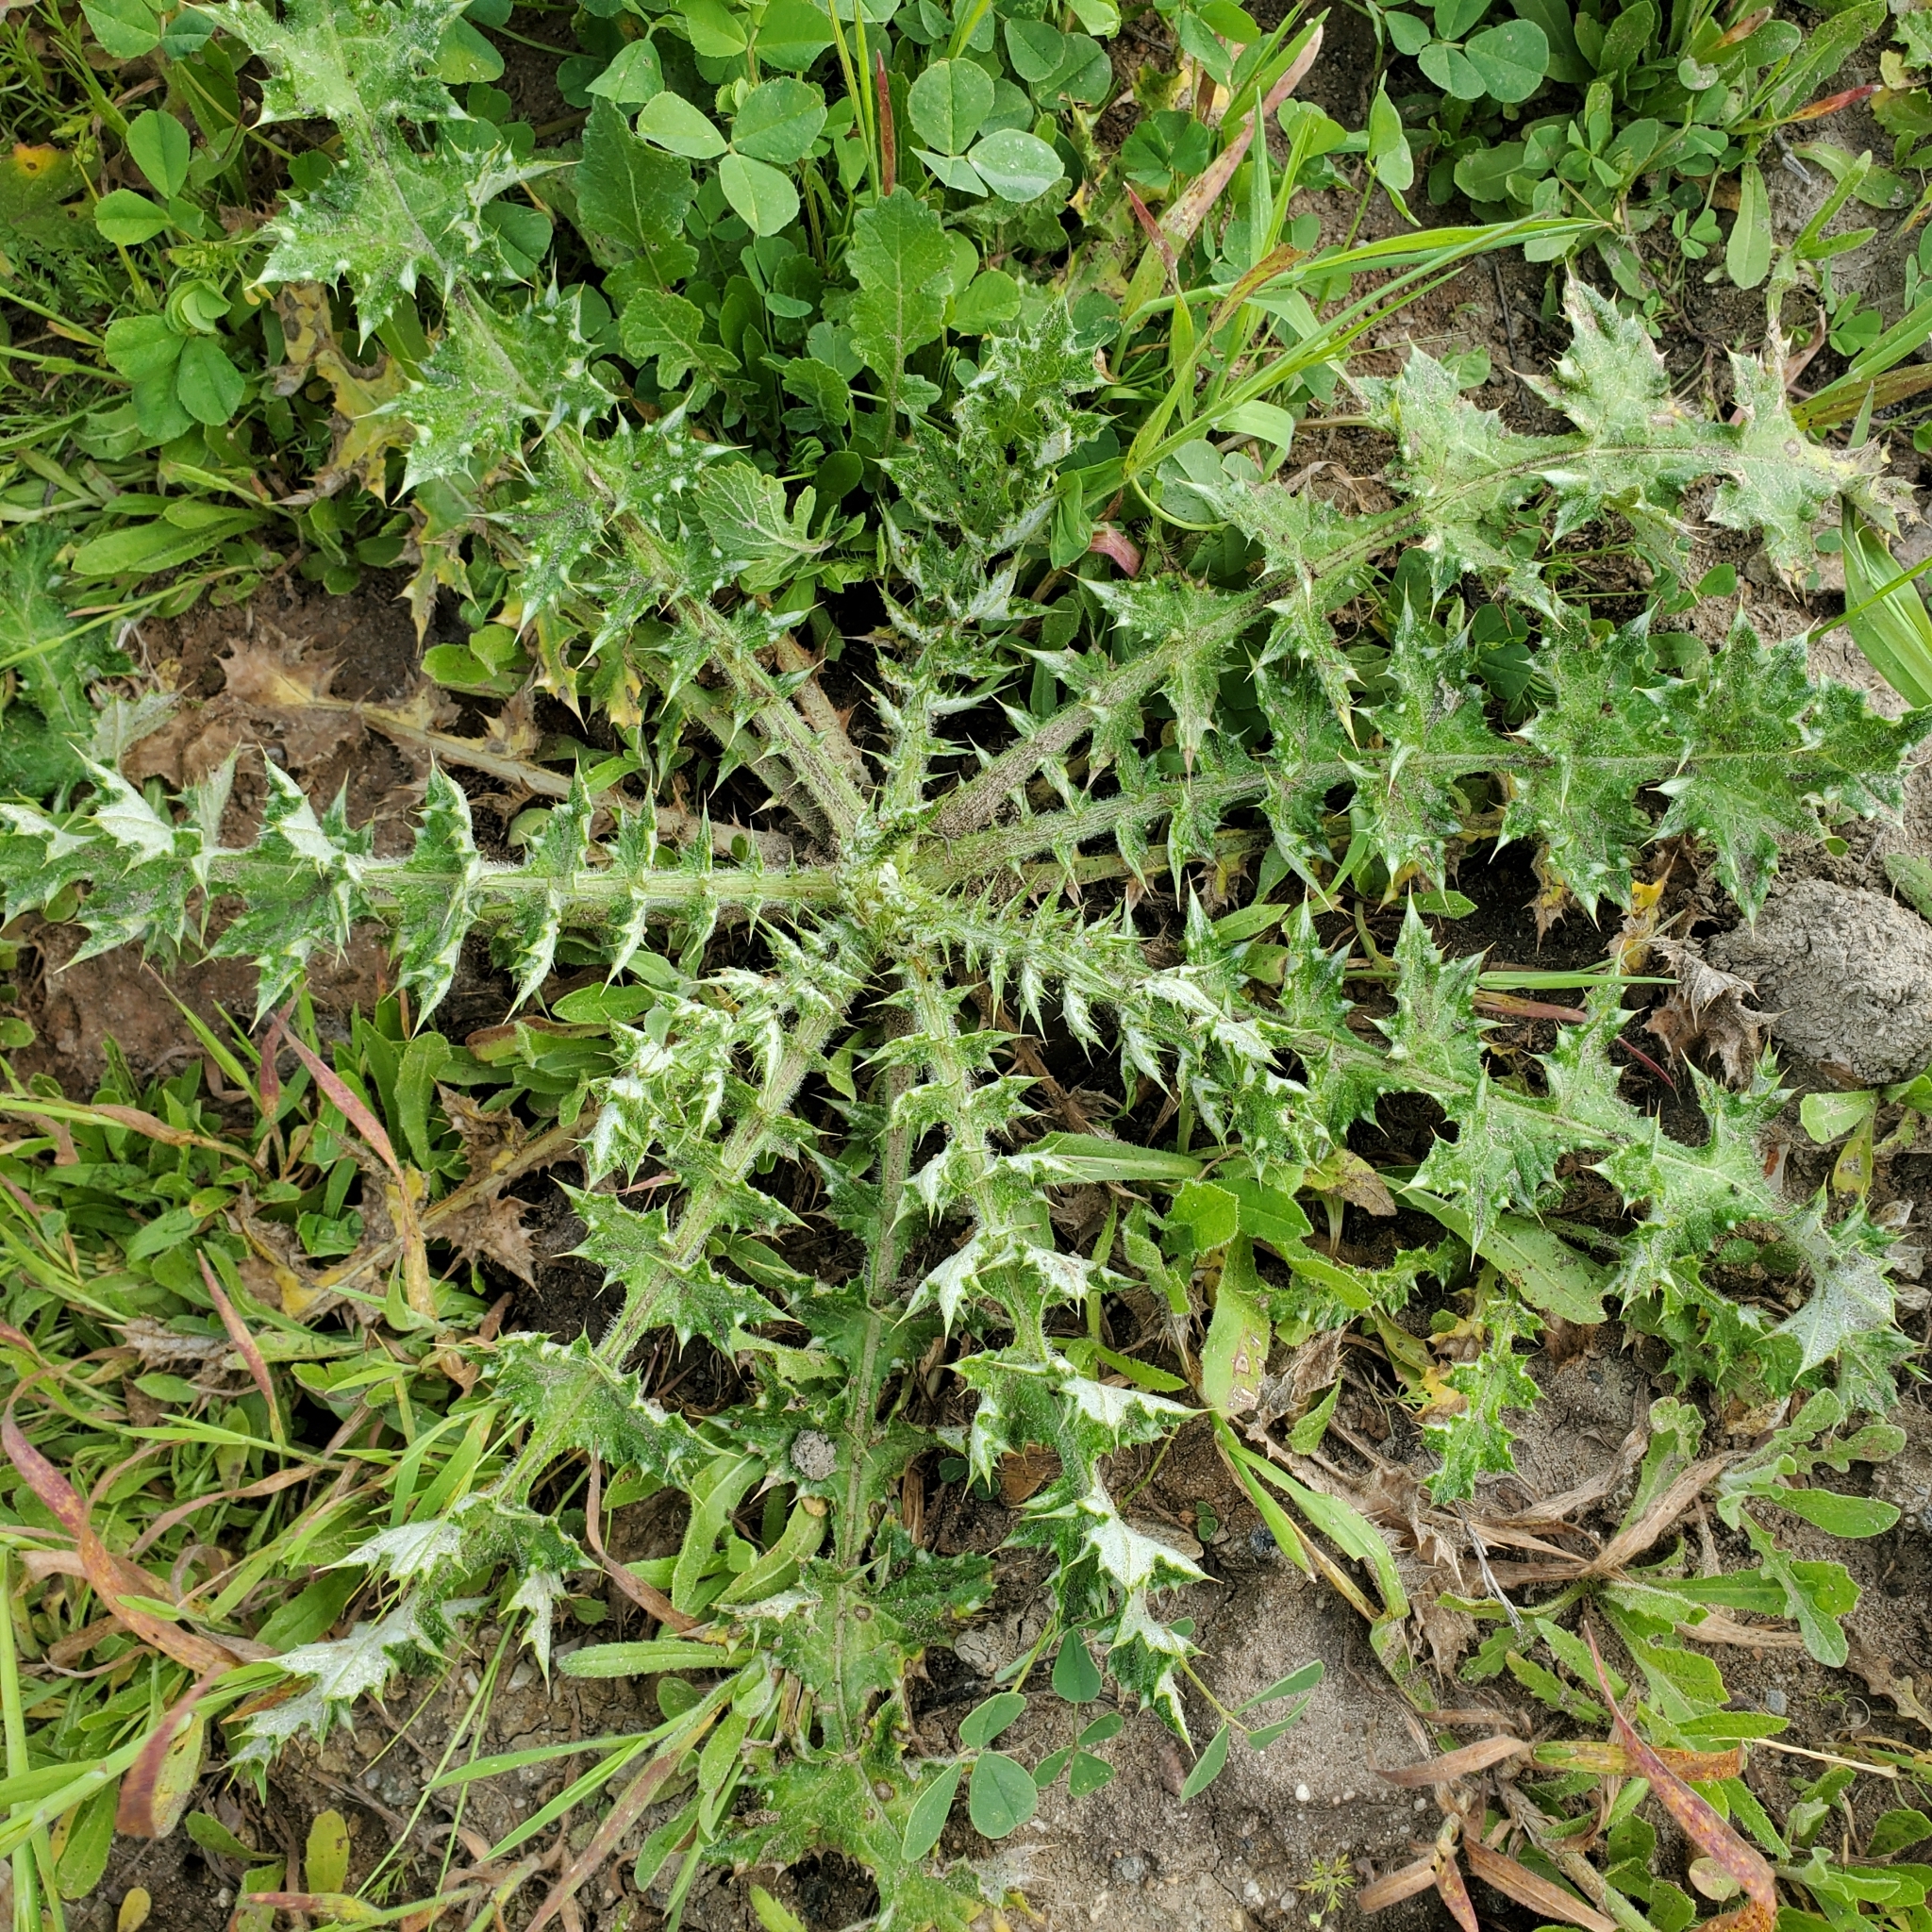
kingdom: Plantae
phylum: Tracheophyta
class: Magnoliopsida
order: Asterales
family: Asteraceae
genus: Carduus
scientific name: Carduus pycnocephalus
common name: Plymouth thistle
